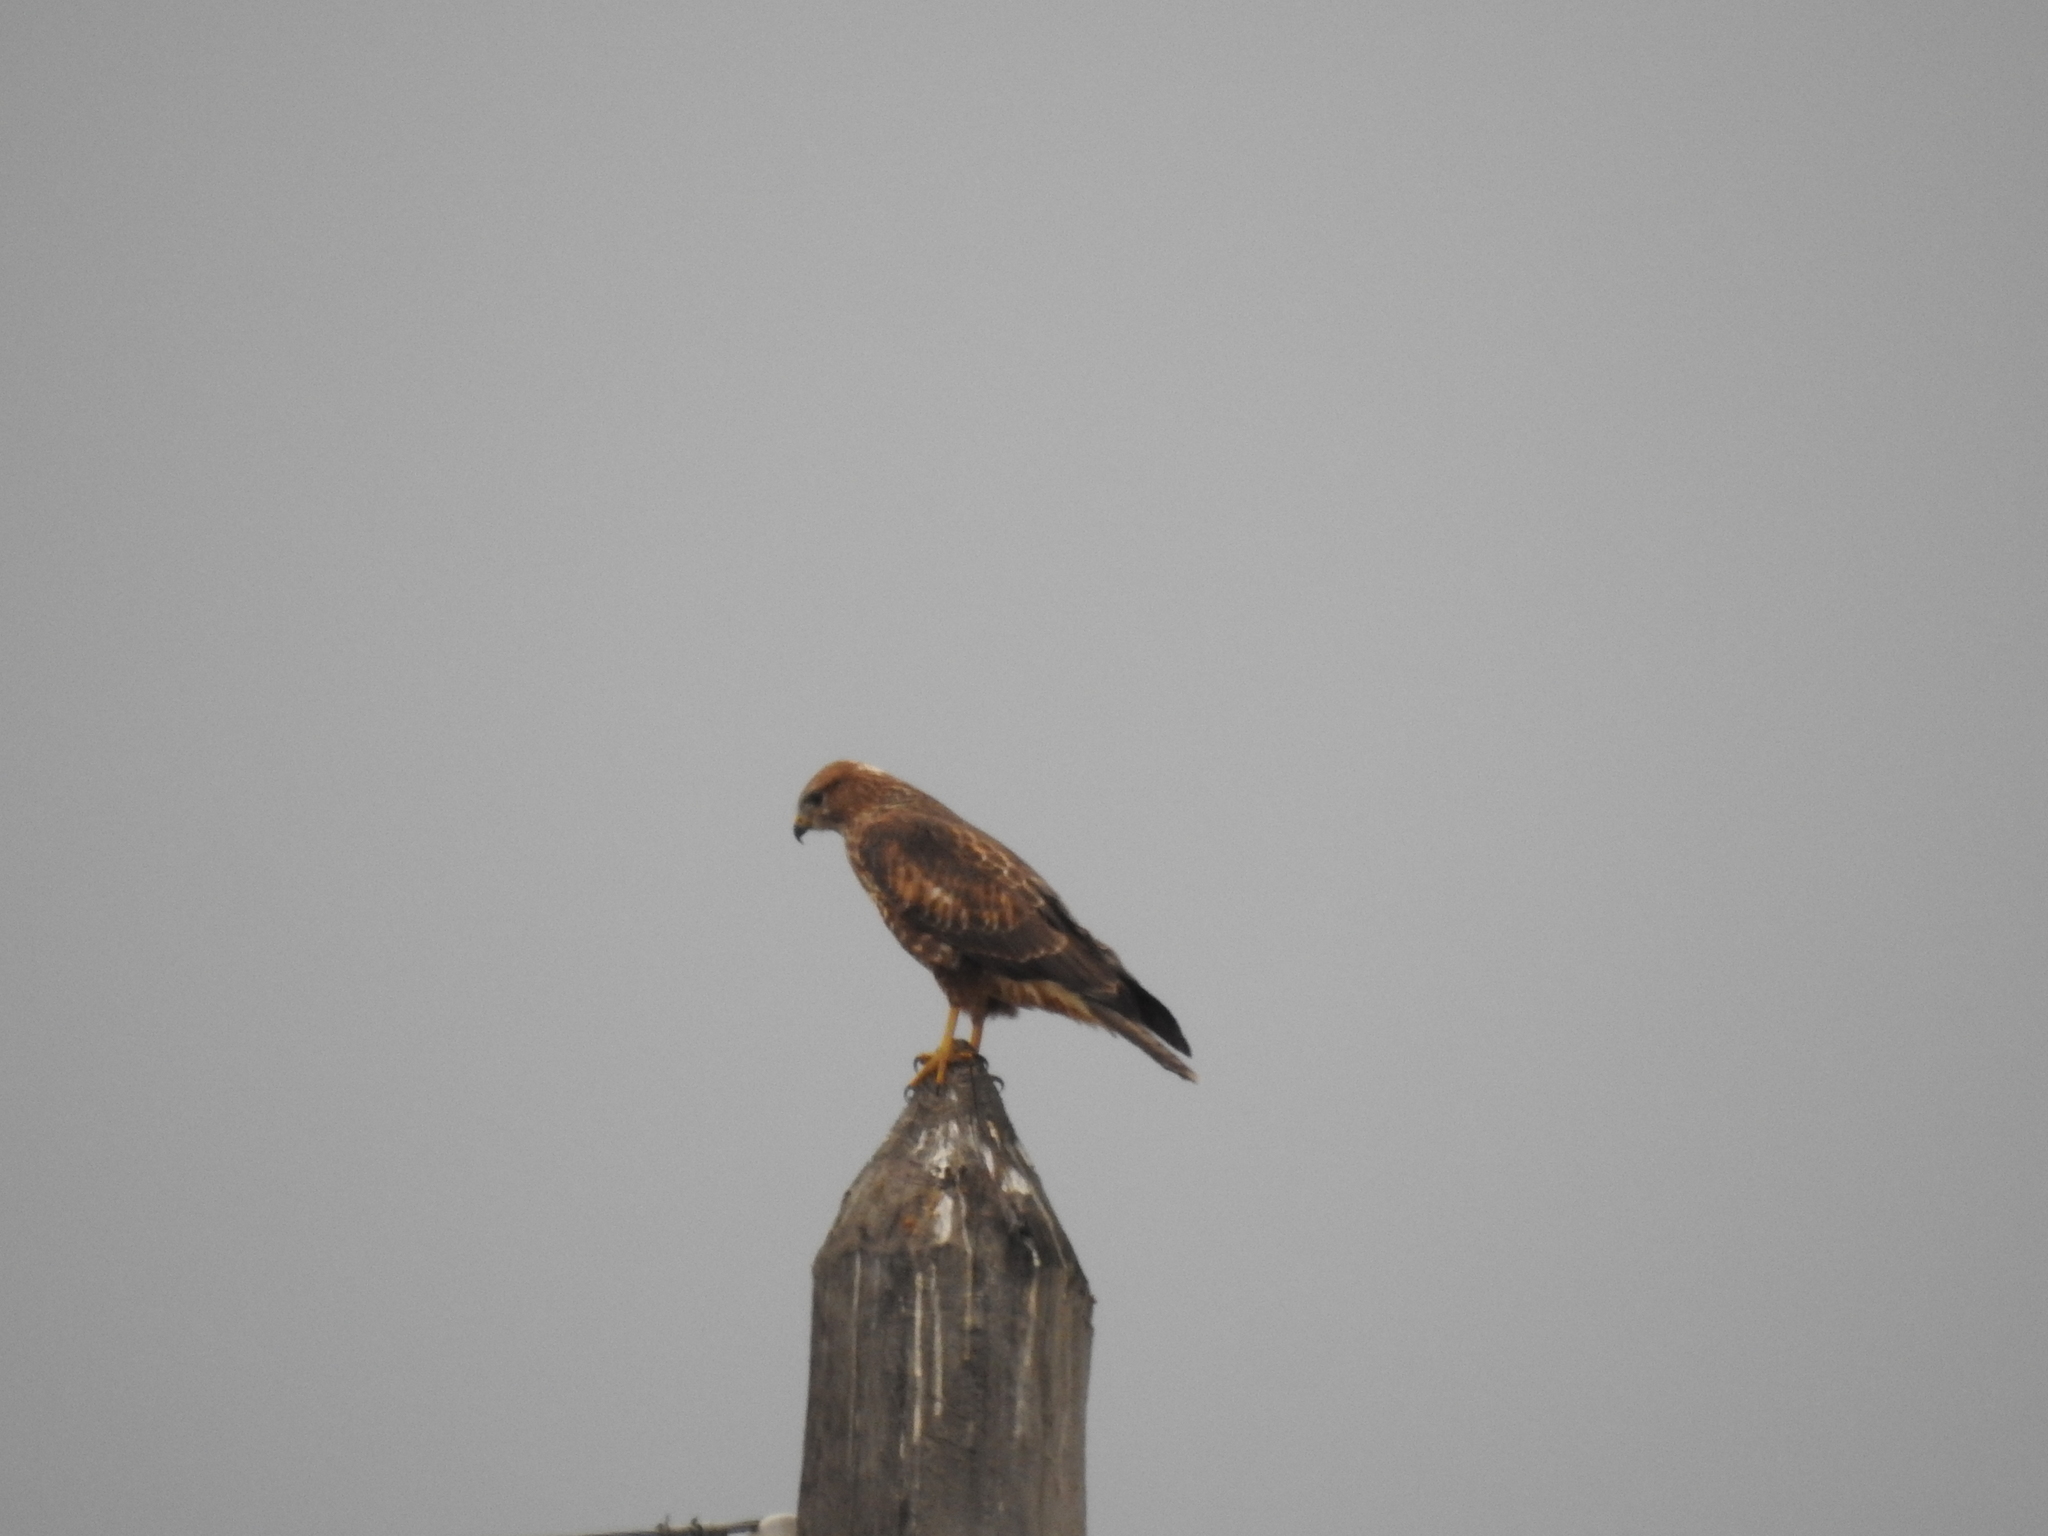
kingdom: Animalia
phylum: Chordata
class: Aves
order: Accipitriformes
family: Accipitridae
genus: Buteo
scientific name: Buteo buteo
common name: Common buzzard
